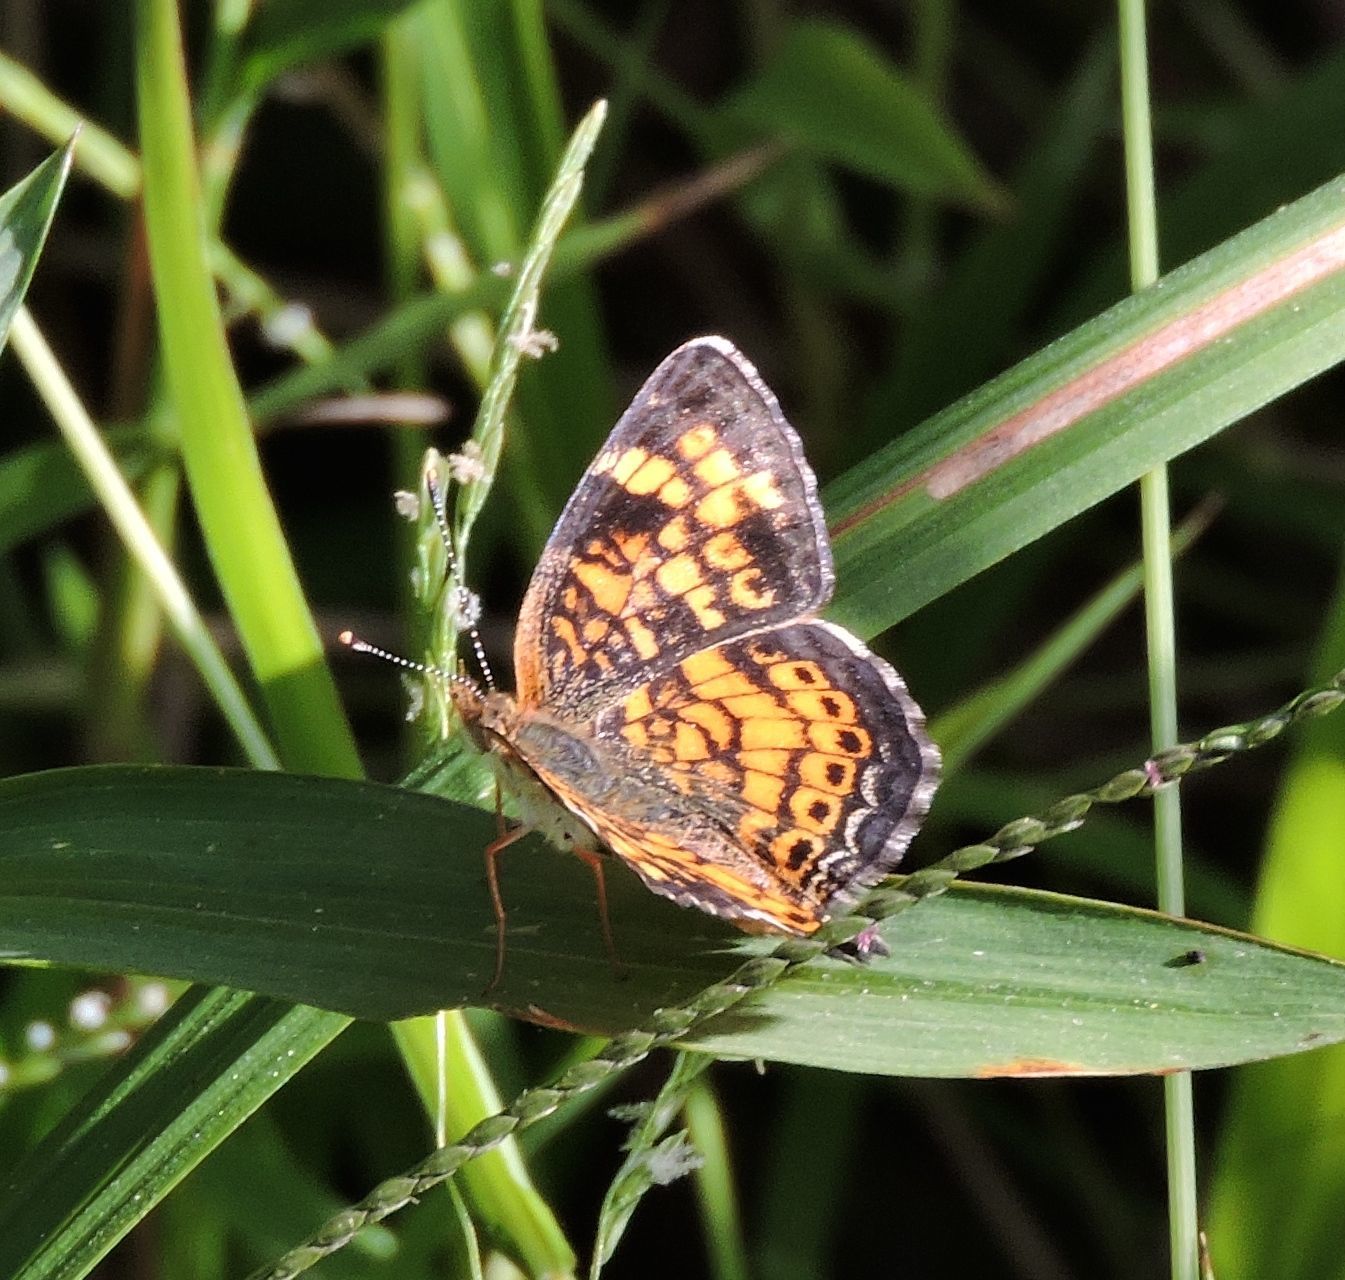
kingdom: Animalia
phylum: Arthropoda
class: Insecta
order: Lepidoptera
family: Nymphalidae
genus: Phyciodes
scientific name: Phyciodes tharos
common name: Pearl crescent
